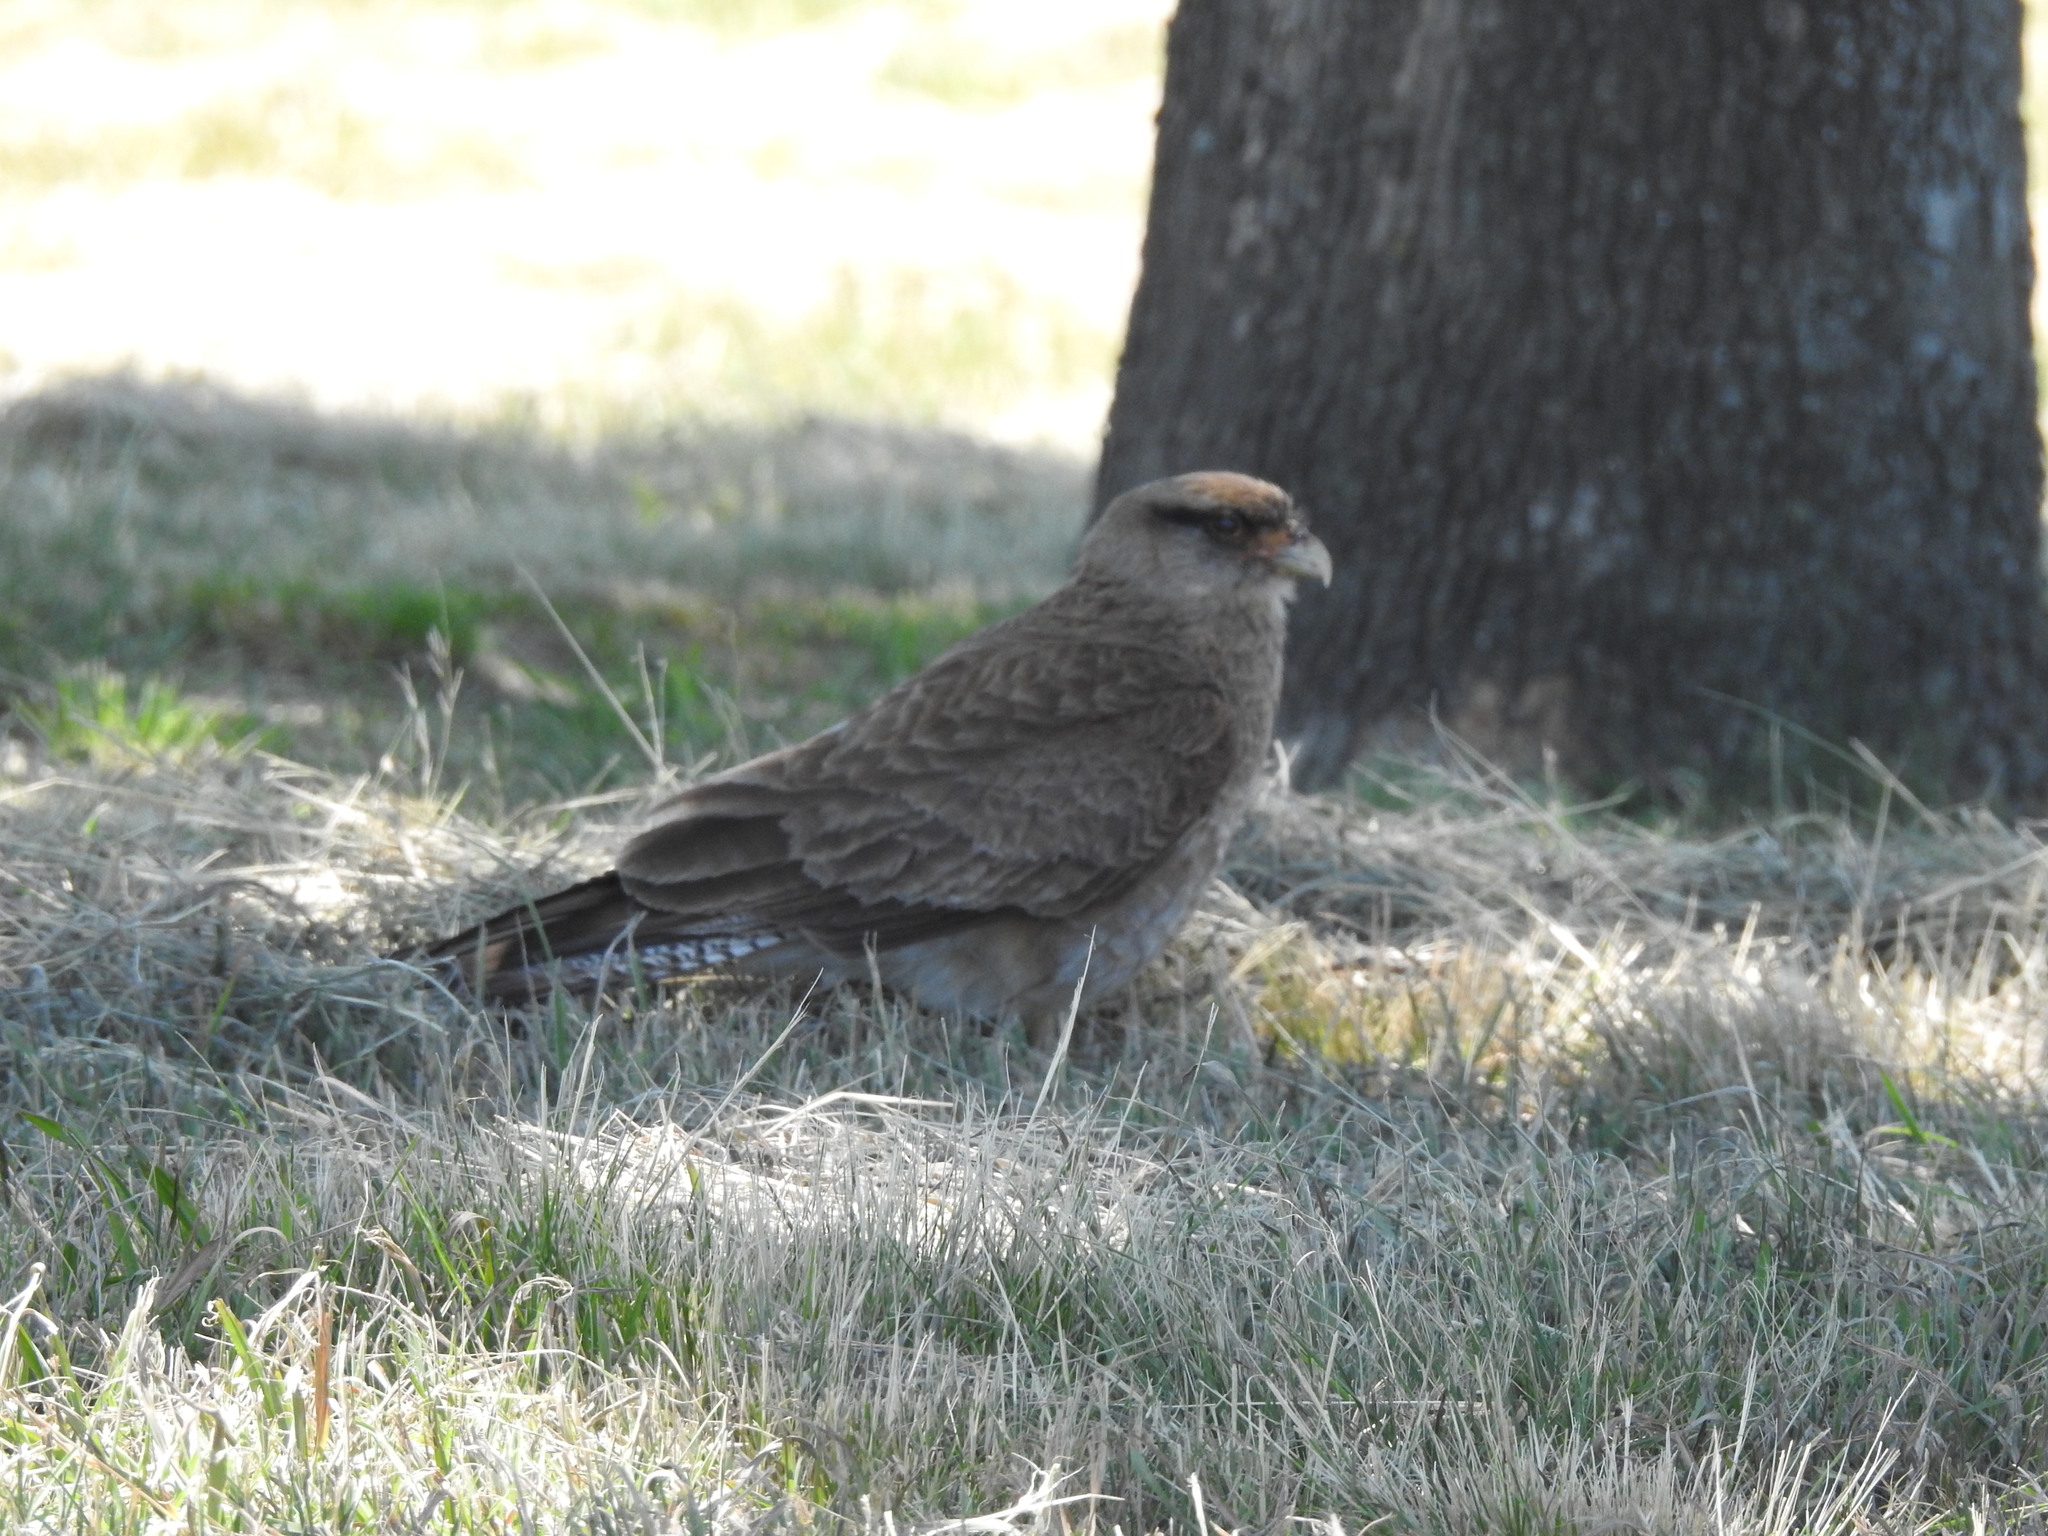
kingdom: Animalia
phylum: Chordata
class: Aves
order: Falconiformes
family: Falconidae
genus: Daptrius
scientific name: Daptrius
